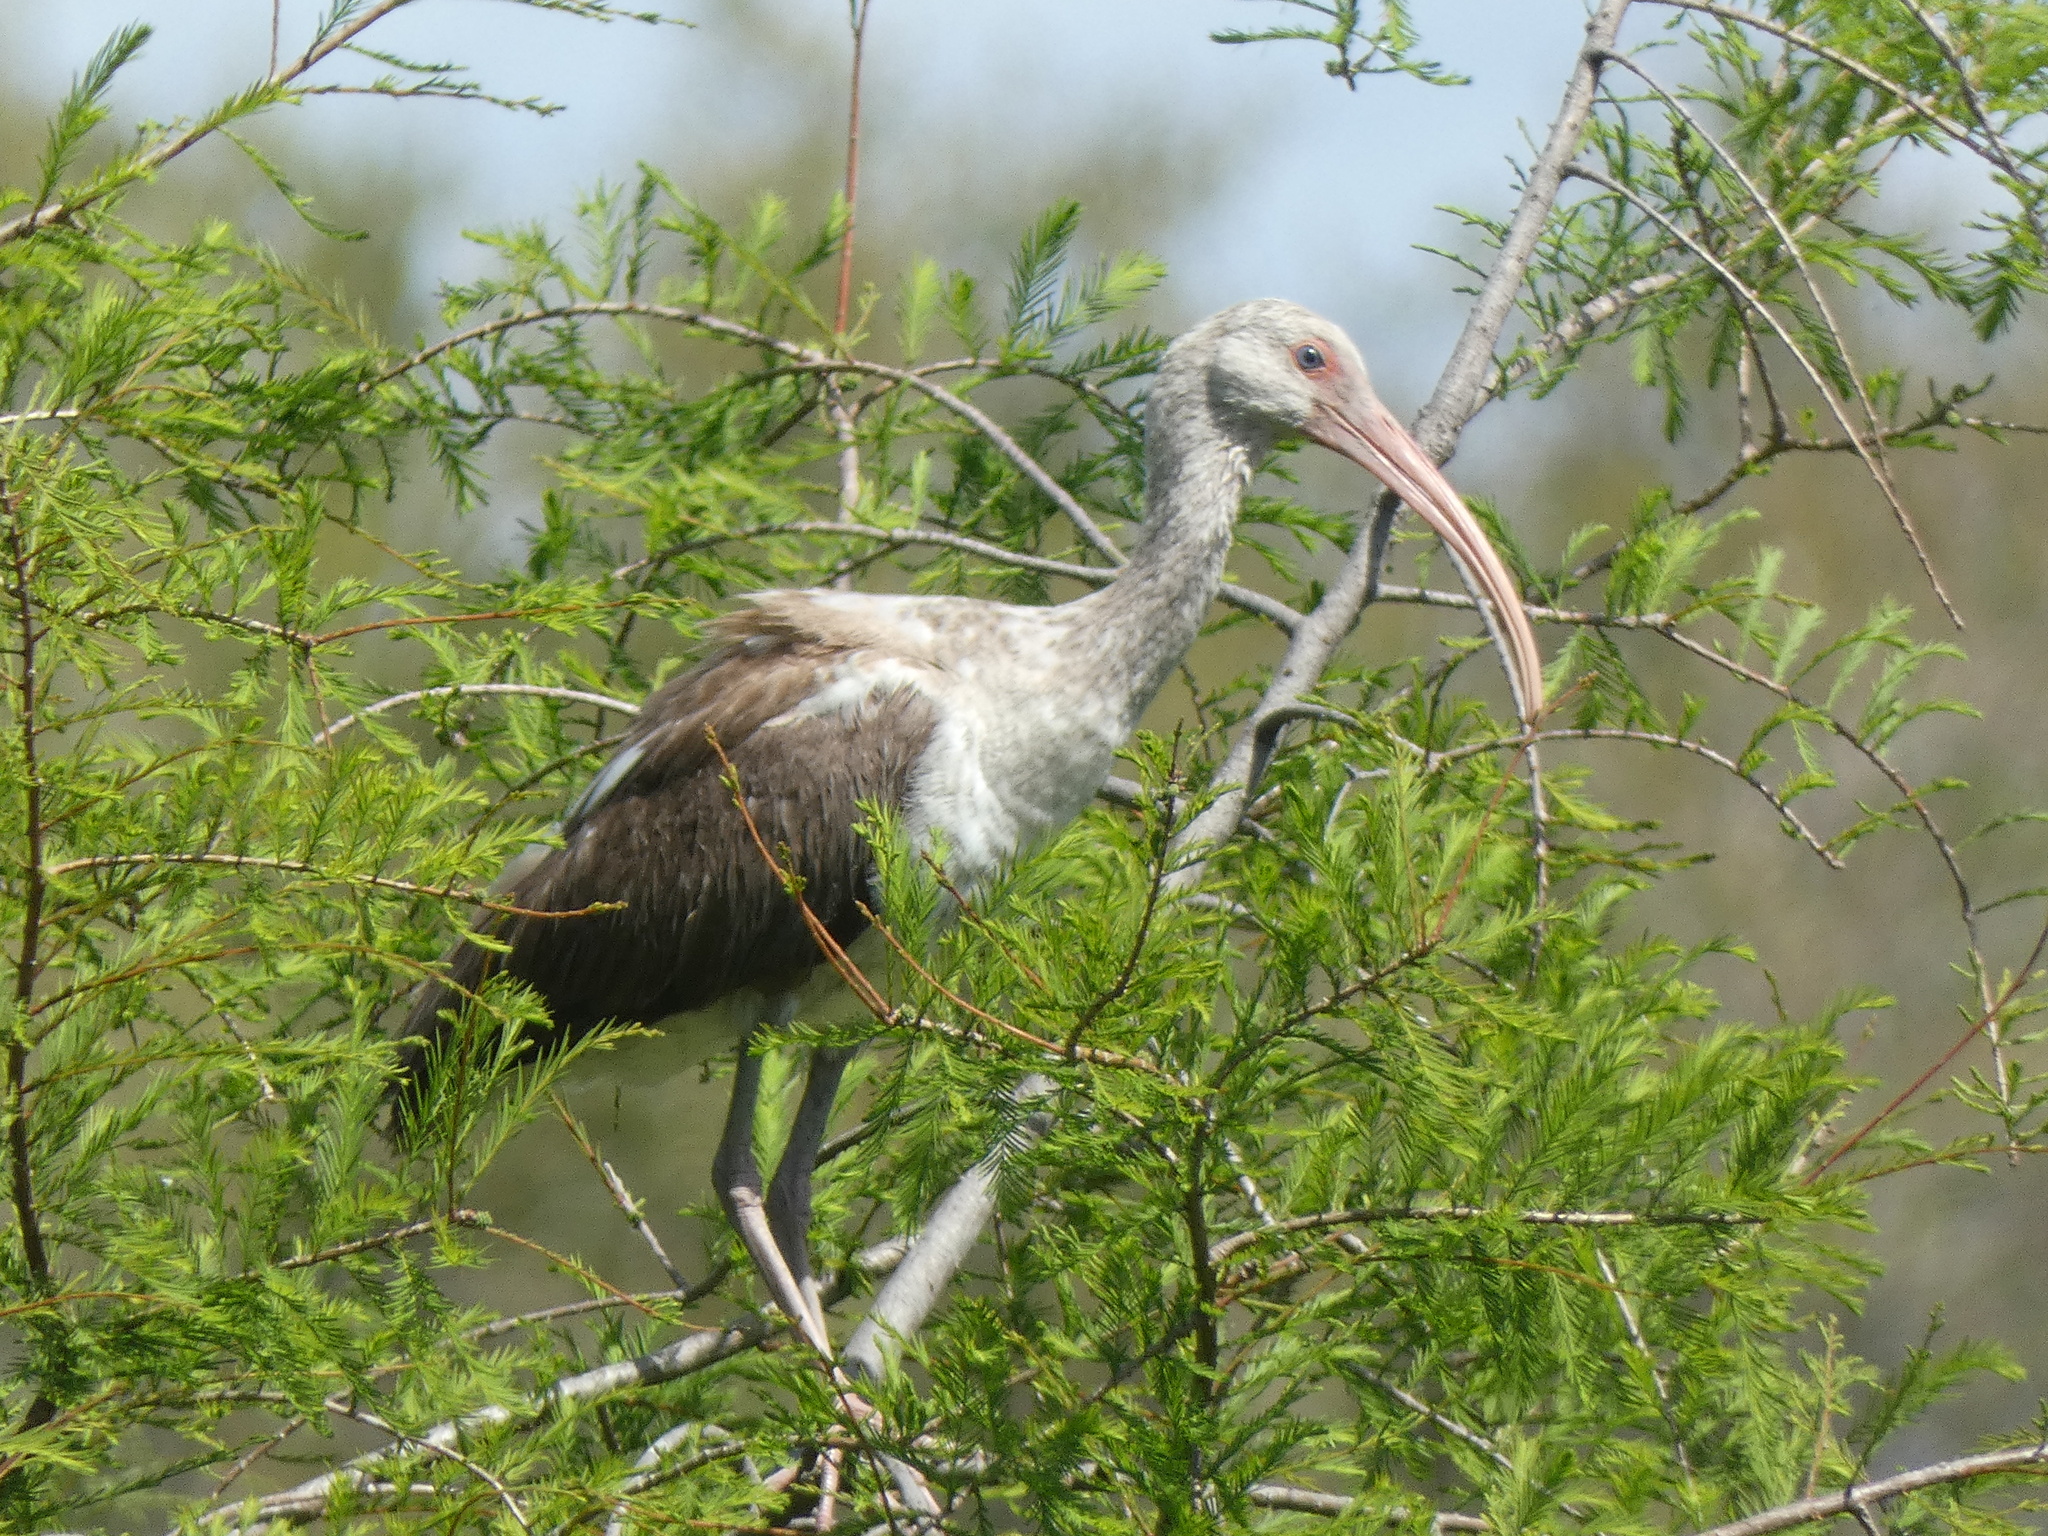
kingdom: Animalia
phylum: Chordata
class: Aves
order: Pelecaniformes
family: Threskiornithidae
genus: Eudocimus
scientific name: Eudocimus albus
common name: White ibis
